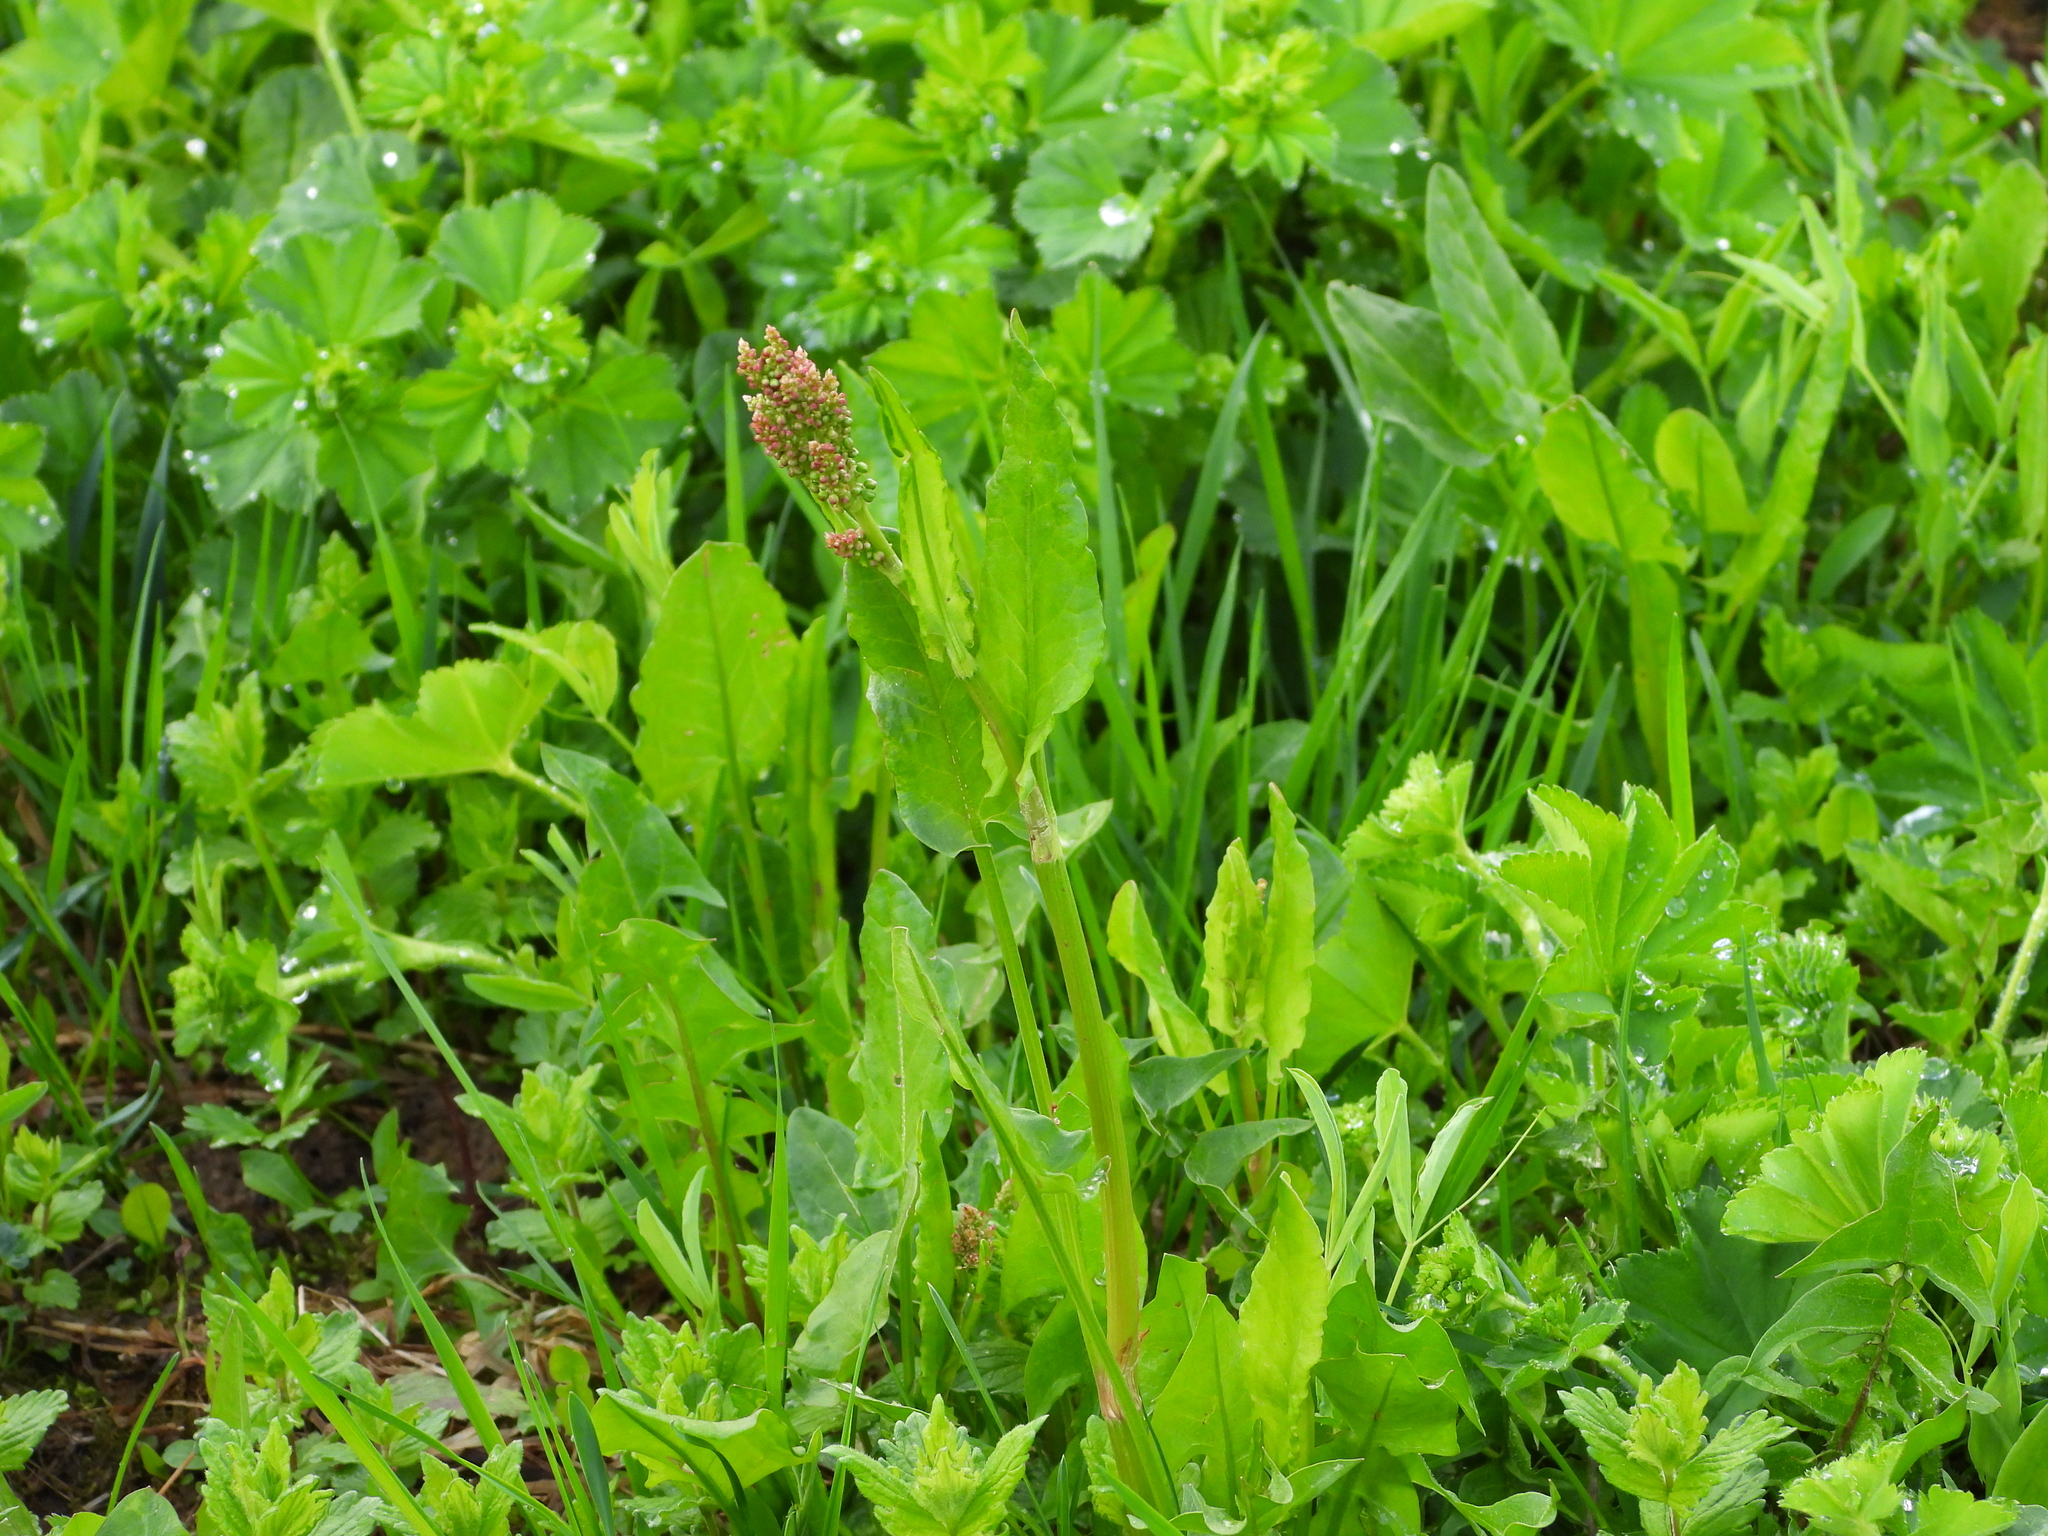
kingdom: Plantae
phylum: Tracheophyta
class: Magnoliopsida
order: Caryophyllales
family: Polygonaceae
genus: Rumex
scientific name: Rumex acetosa
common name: Garden sorrel
